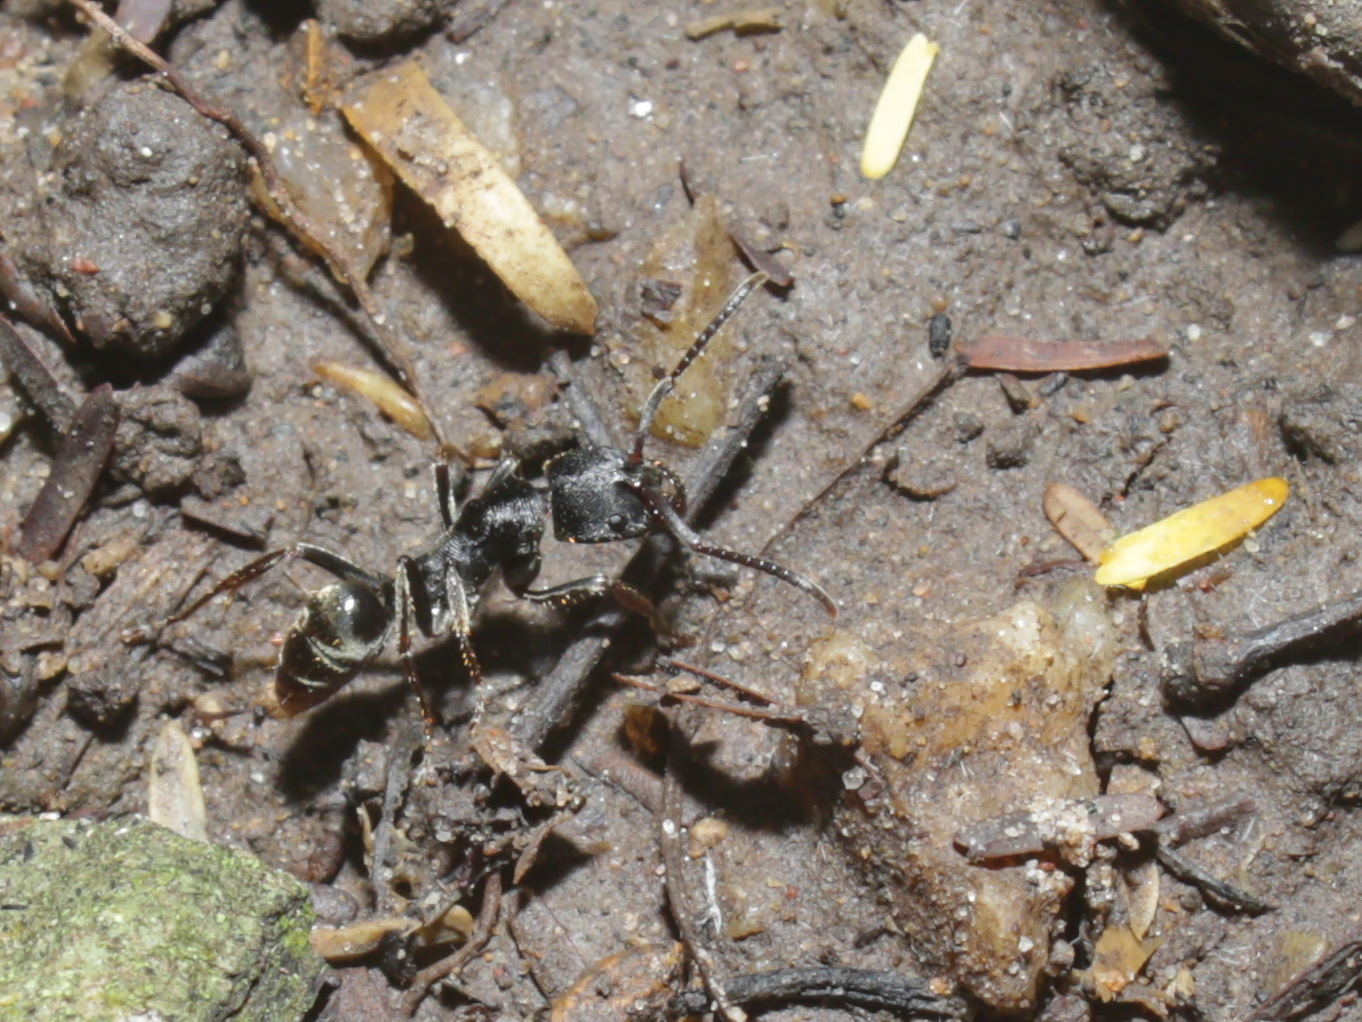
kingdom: Animalia
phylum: Arthropoda
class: Insecta
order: Hymenoptera
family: Formicidae
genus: Odontoponera
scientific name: Odontoponera denticulata
